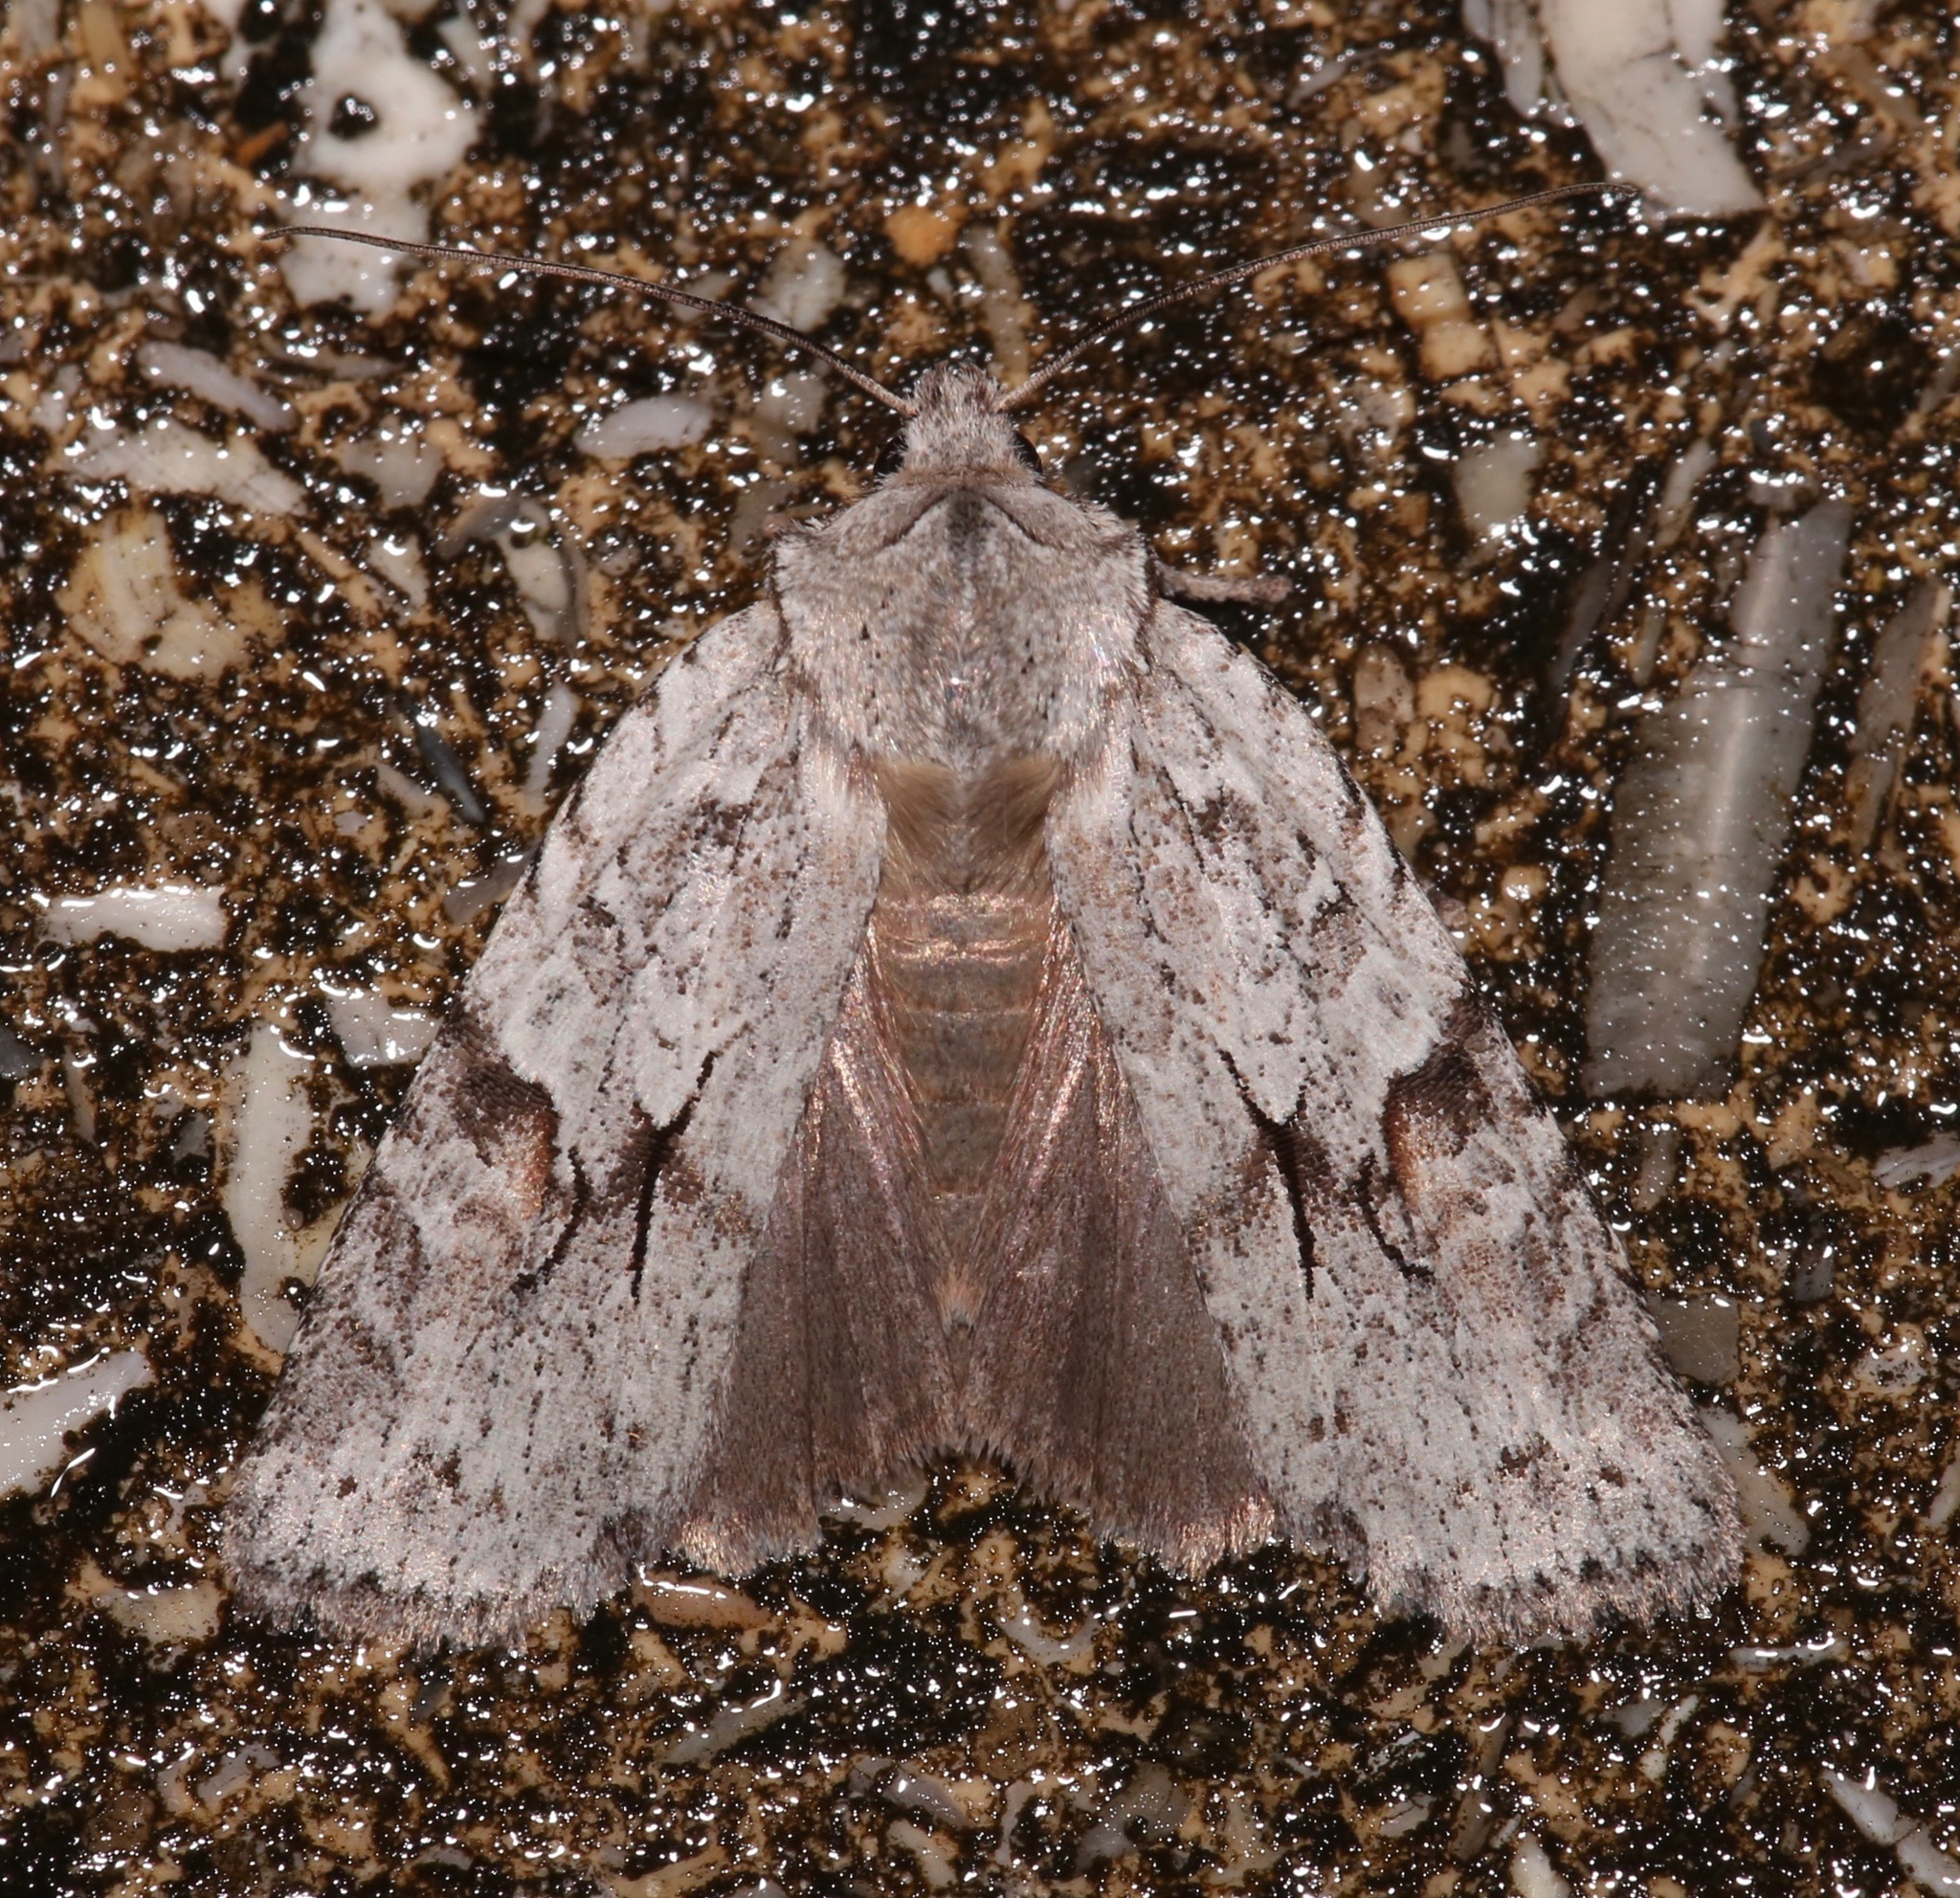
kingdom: Animalia
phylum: Arthropoda
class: Insecta
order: Lepidoptera
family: Noctuidae
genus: Lithophane
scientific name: Lithophane abita
